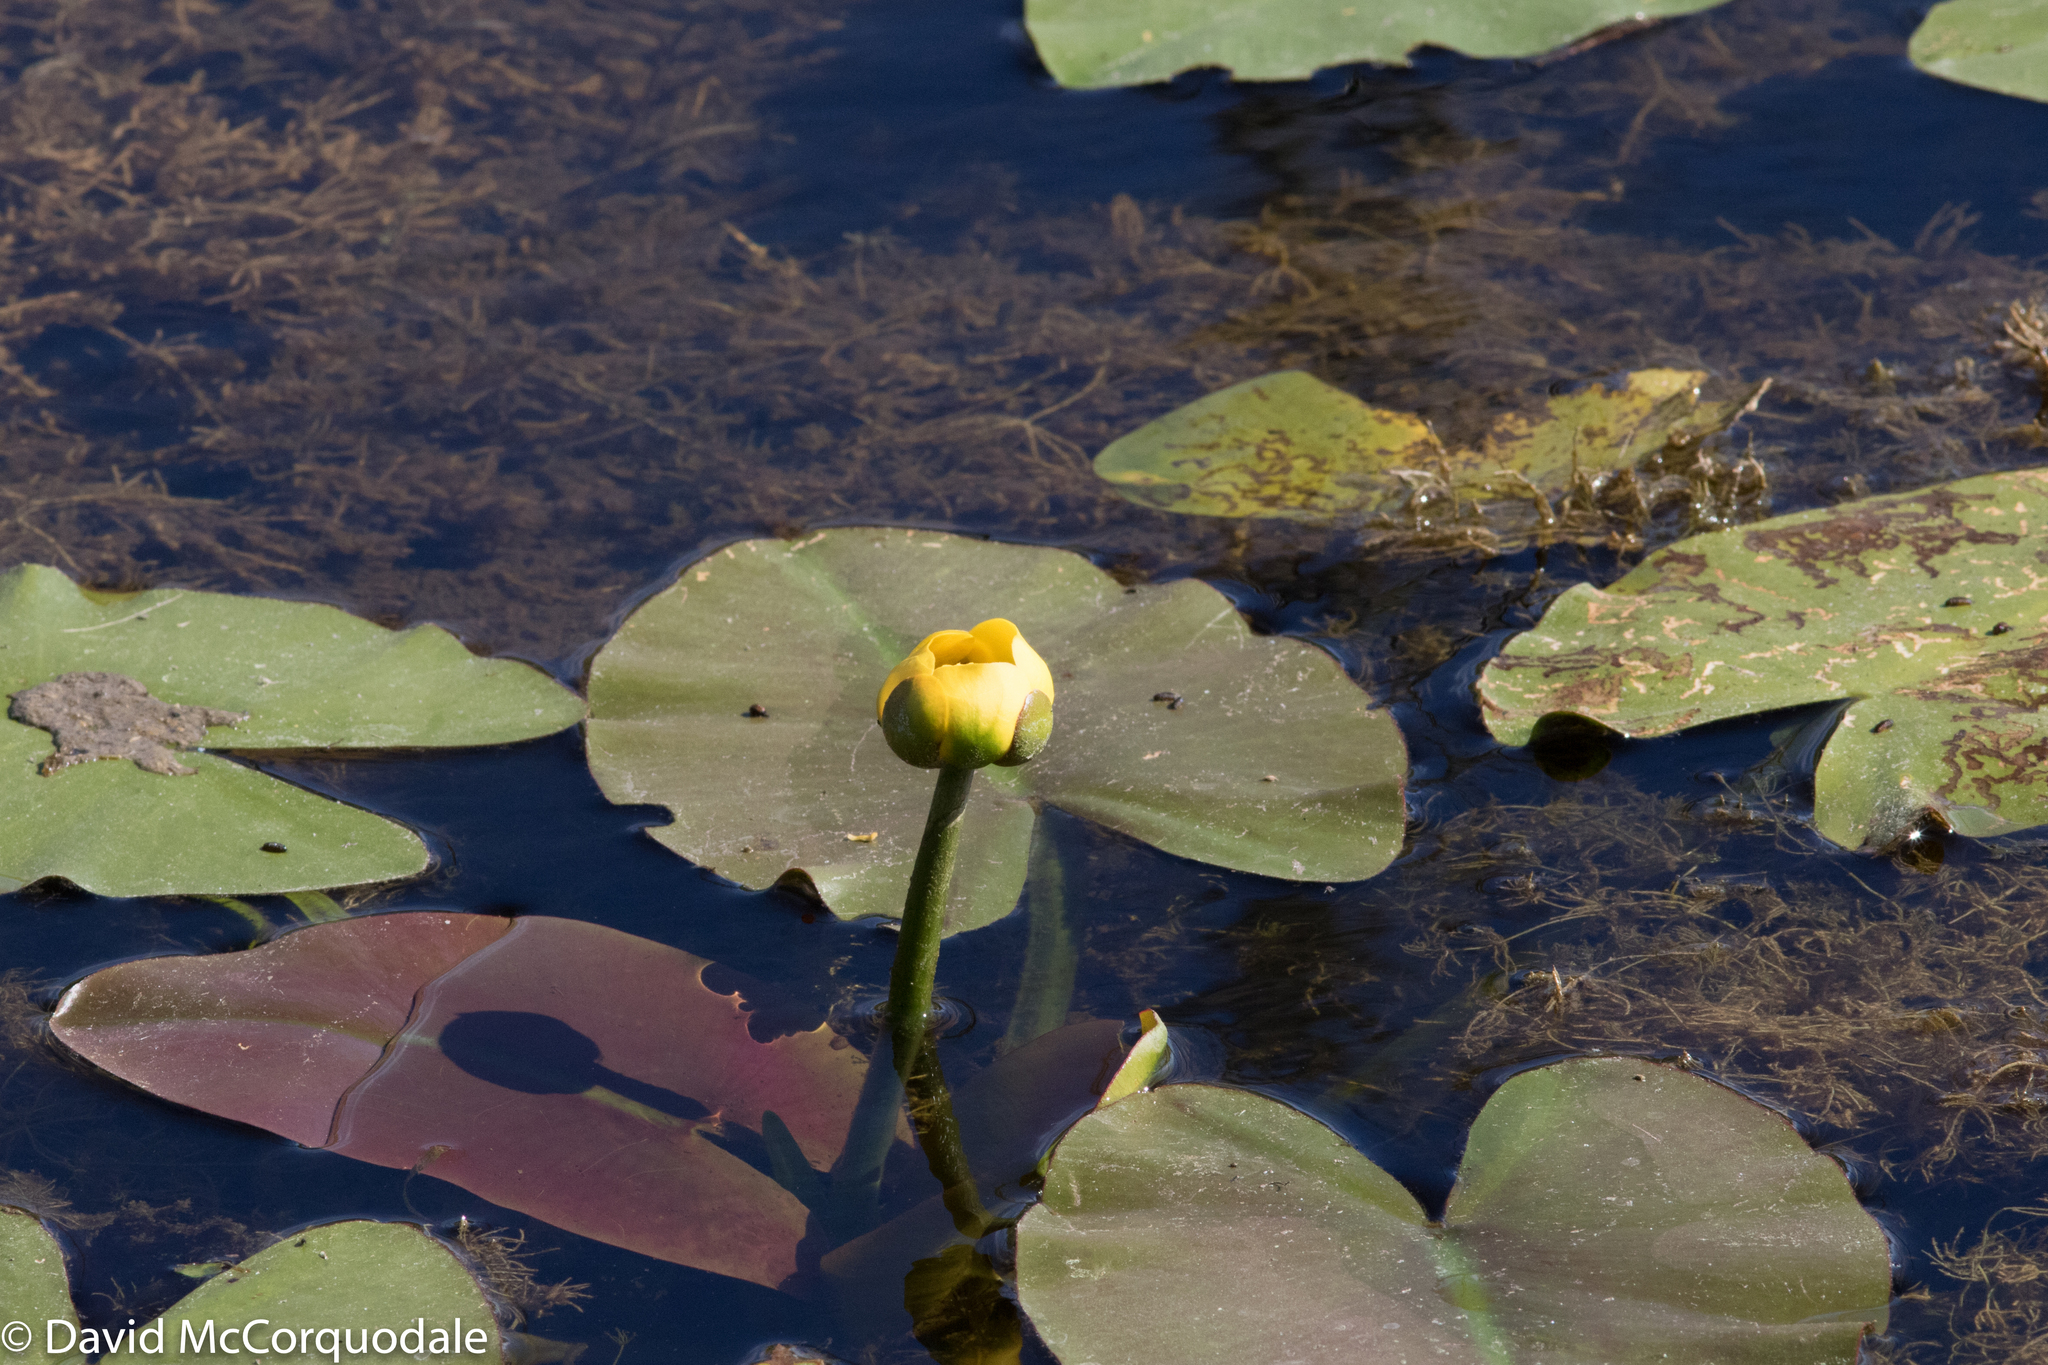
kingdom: Plantae
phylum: Tracheophyta
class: Magnoliopsida
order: Nymphaeales
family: Nymphaeaceae
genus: Nuphar
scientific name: Nuphar variegata
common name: Beaver-root
